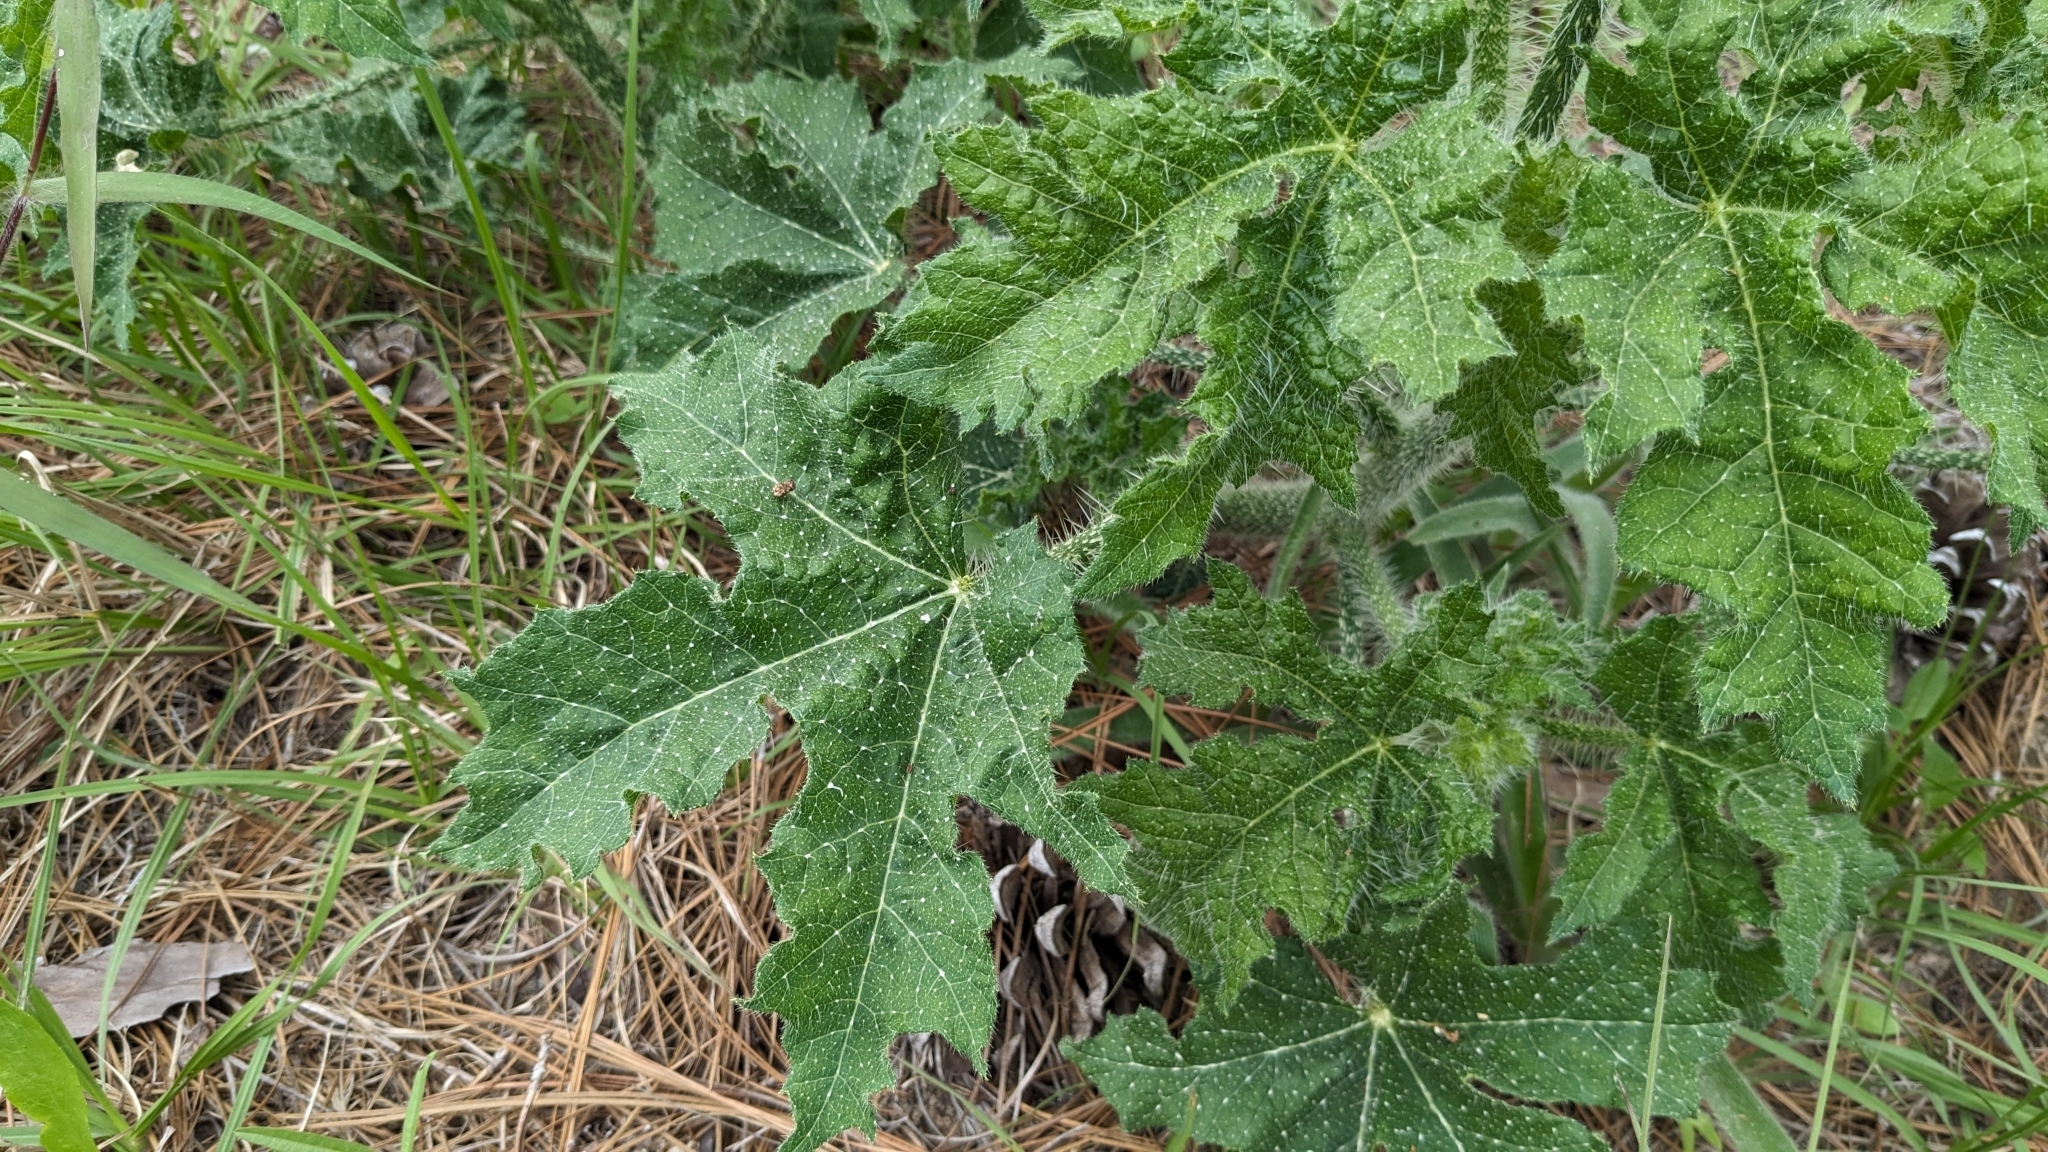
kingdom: Plantae
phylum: Tracheophyta
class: Magnoliopsida
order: Malpighiales
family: Euphorbiaceae
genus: Cnidoscolus
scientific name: Cnidoscolus texanus
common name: Texas bull-nettle
